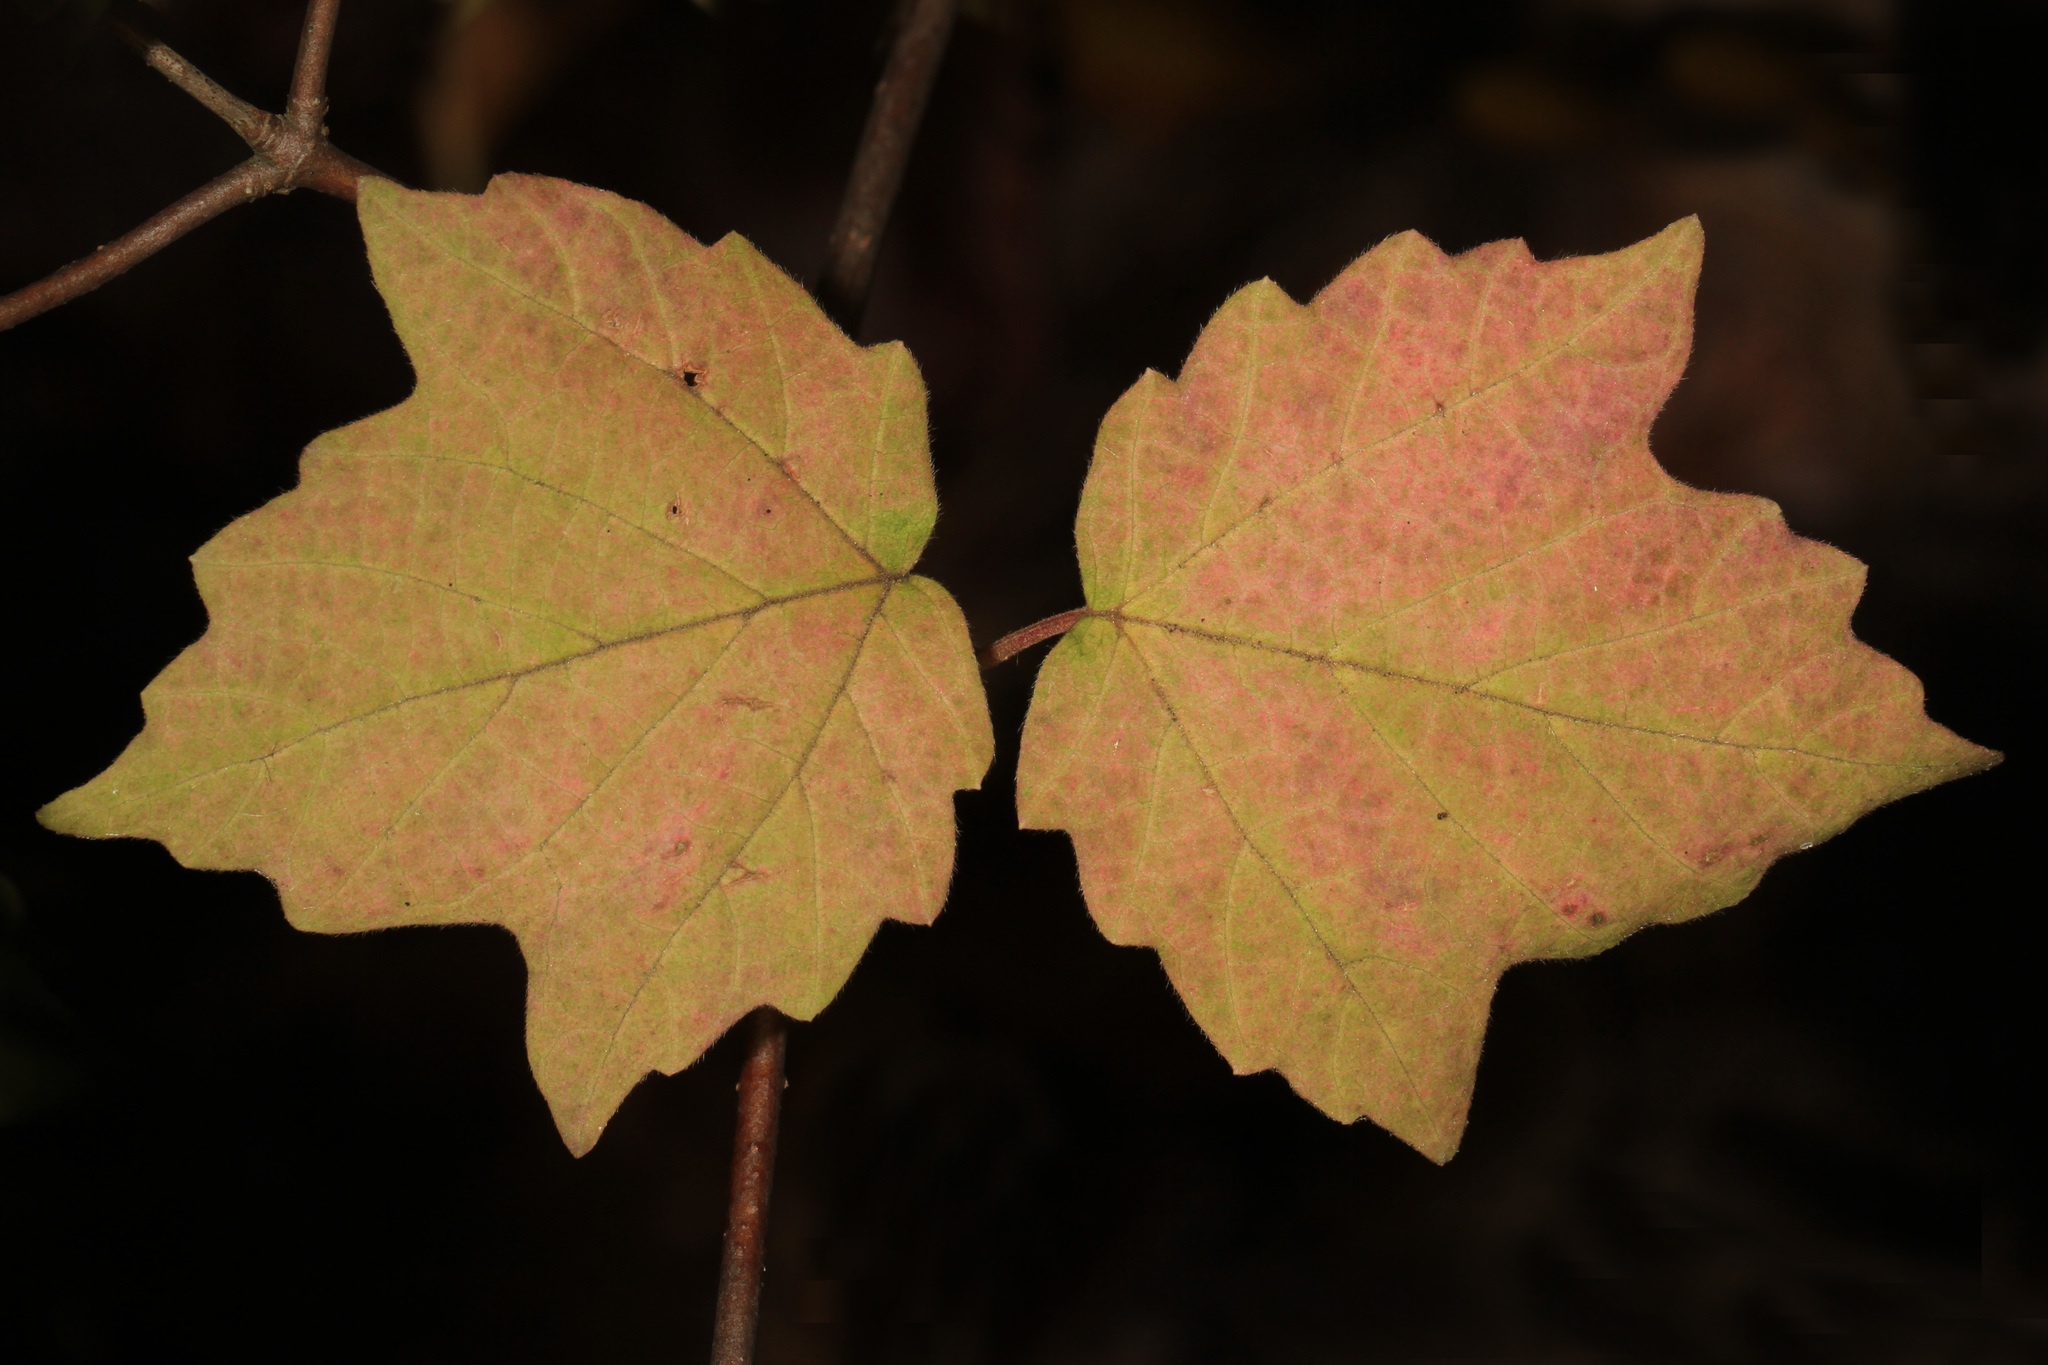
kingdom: Plantae
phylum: Tracheophyta
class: Magnoliopsida
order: Dipsacales
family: Viburnaceae
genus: Viburnum
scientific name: Viburnum acerifolium
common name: Dockmackie
